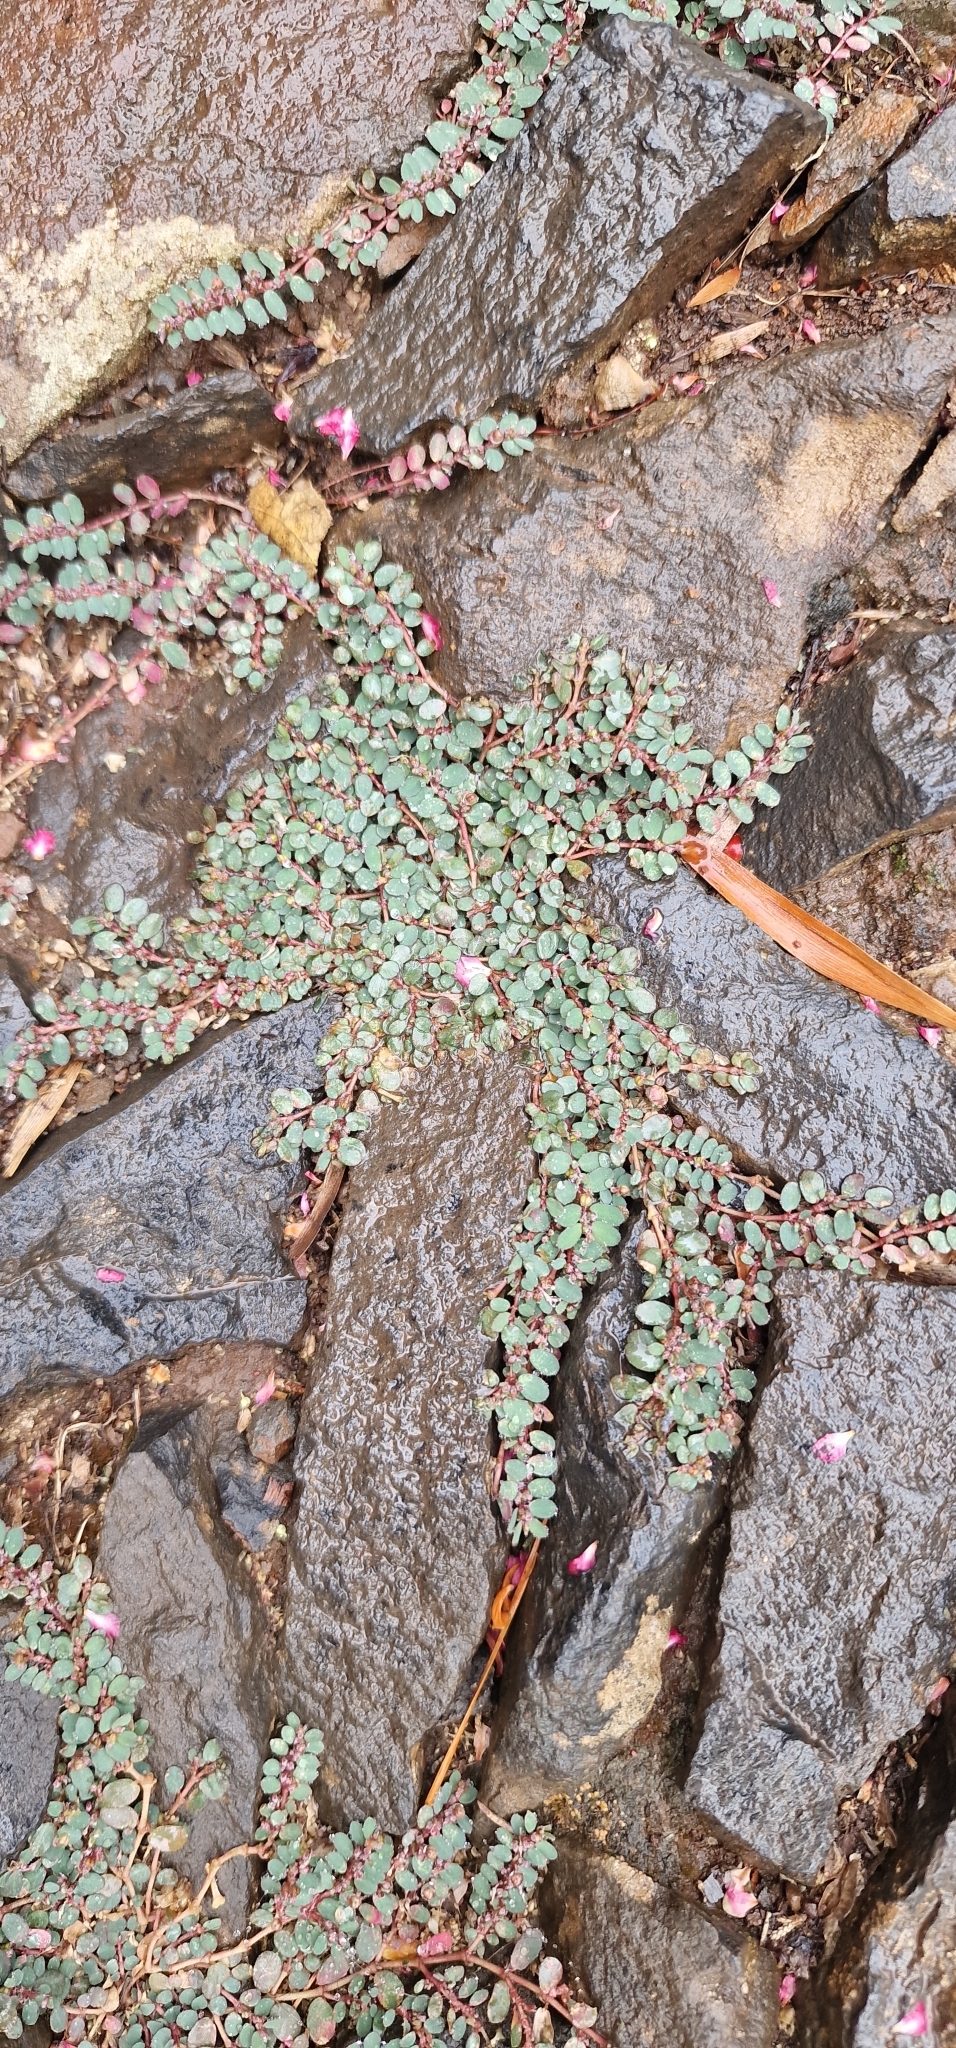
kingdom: Plantae
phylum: Tracheophyta
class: Magnoliopsida
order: Malpighiales
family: Euphorbiaceae
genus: Euphorbia
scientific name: Euphorbia prostrata
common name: Prostrate sandmat
